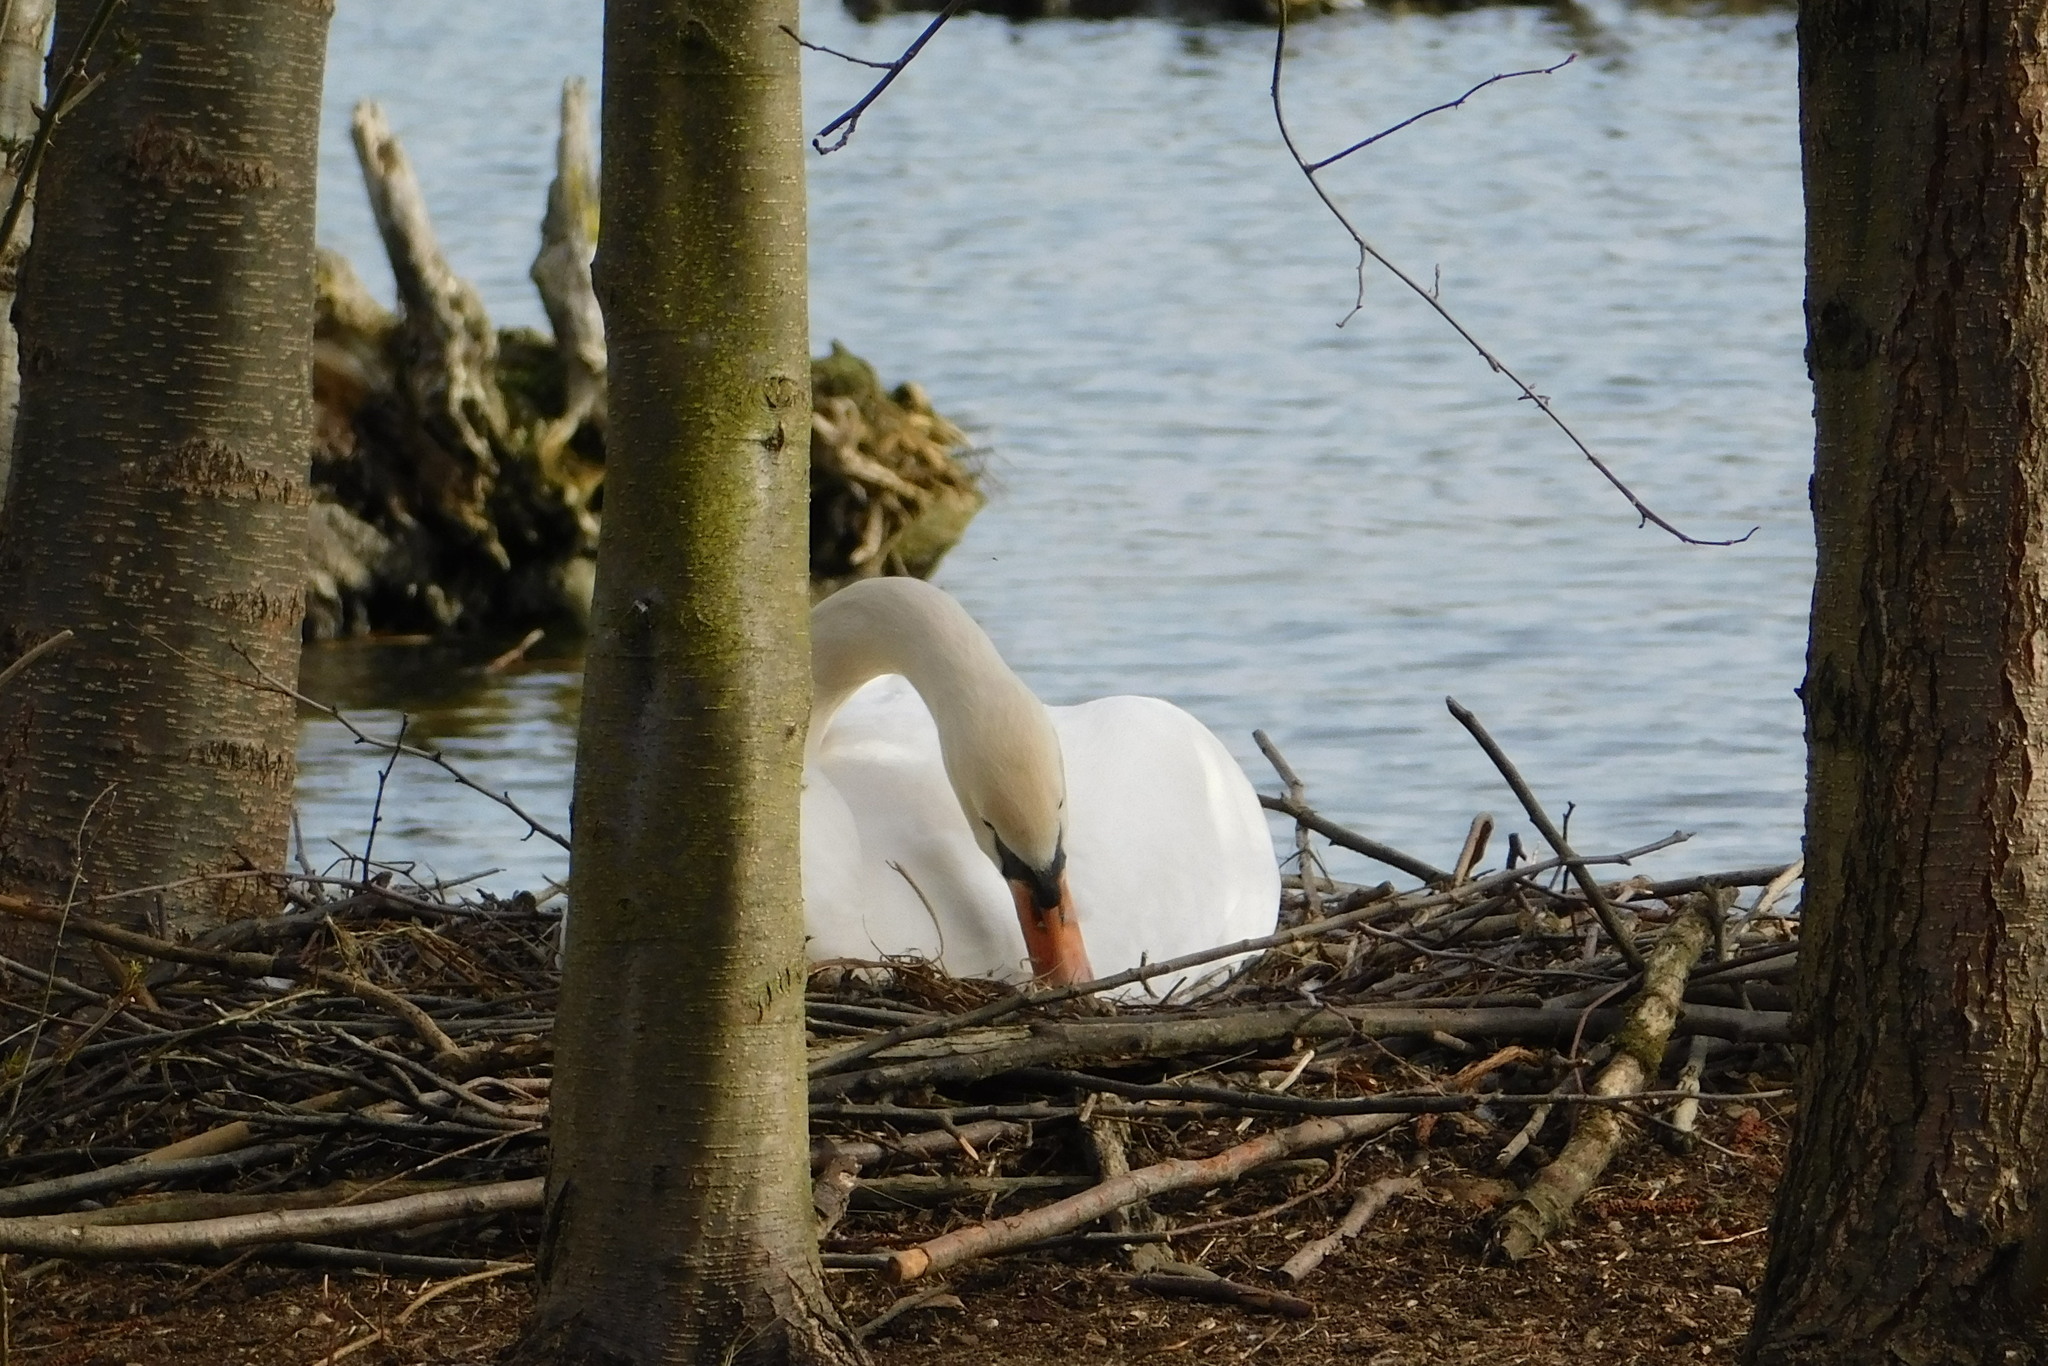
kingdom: Animalia
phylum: Chordata
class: Aves
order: Anseriformes
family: Anatidae
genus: Cygnus
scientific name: Cygnus olor
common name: Mute swan
